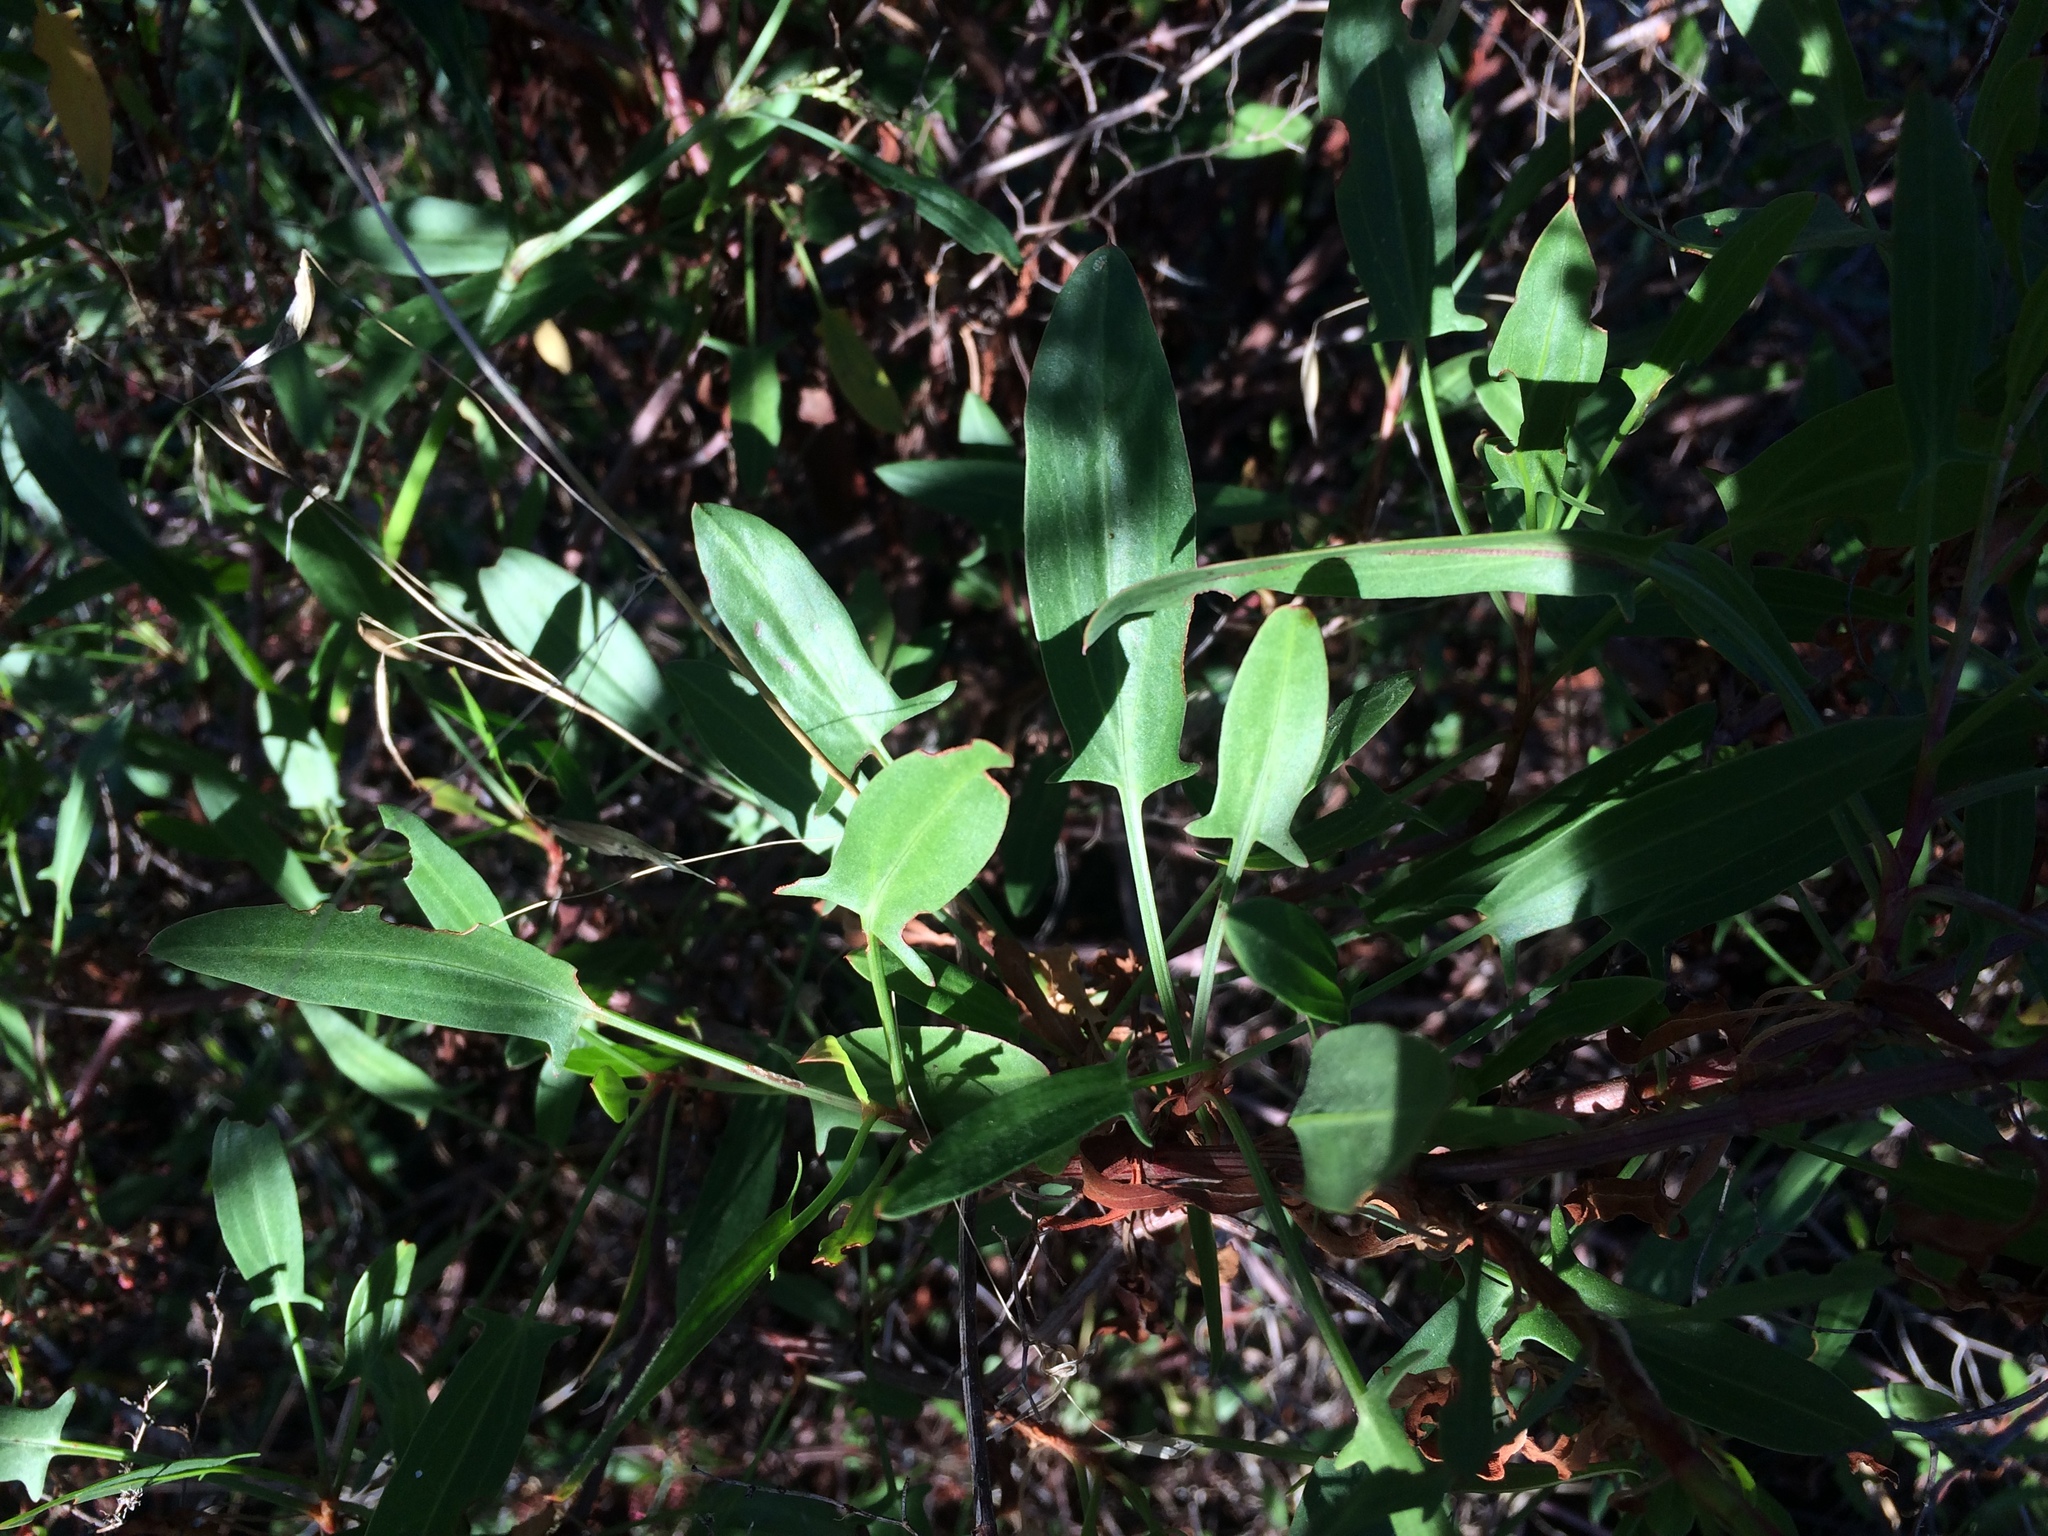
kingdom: Plantae
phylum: Tracheophyta
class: Magnoliopsida
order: Caryophyllales
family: Polygonaceae
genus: Rumex
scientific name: Rumex usambarensis
